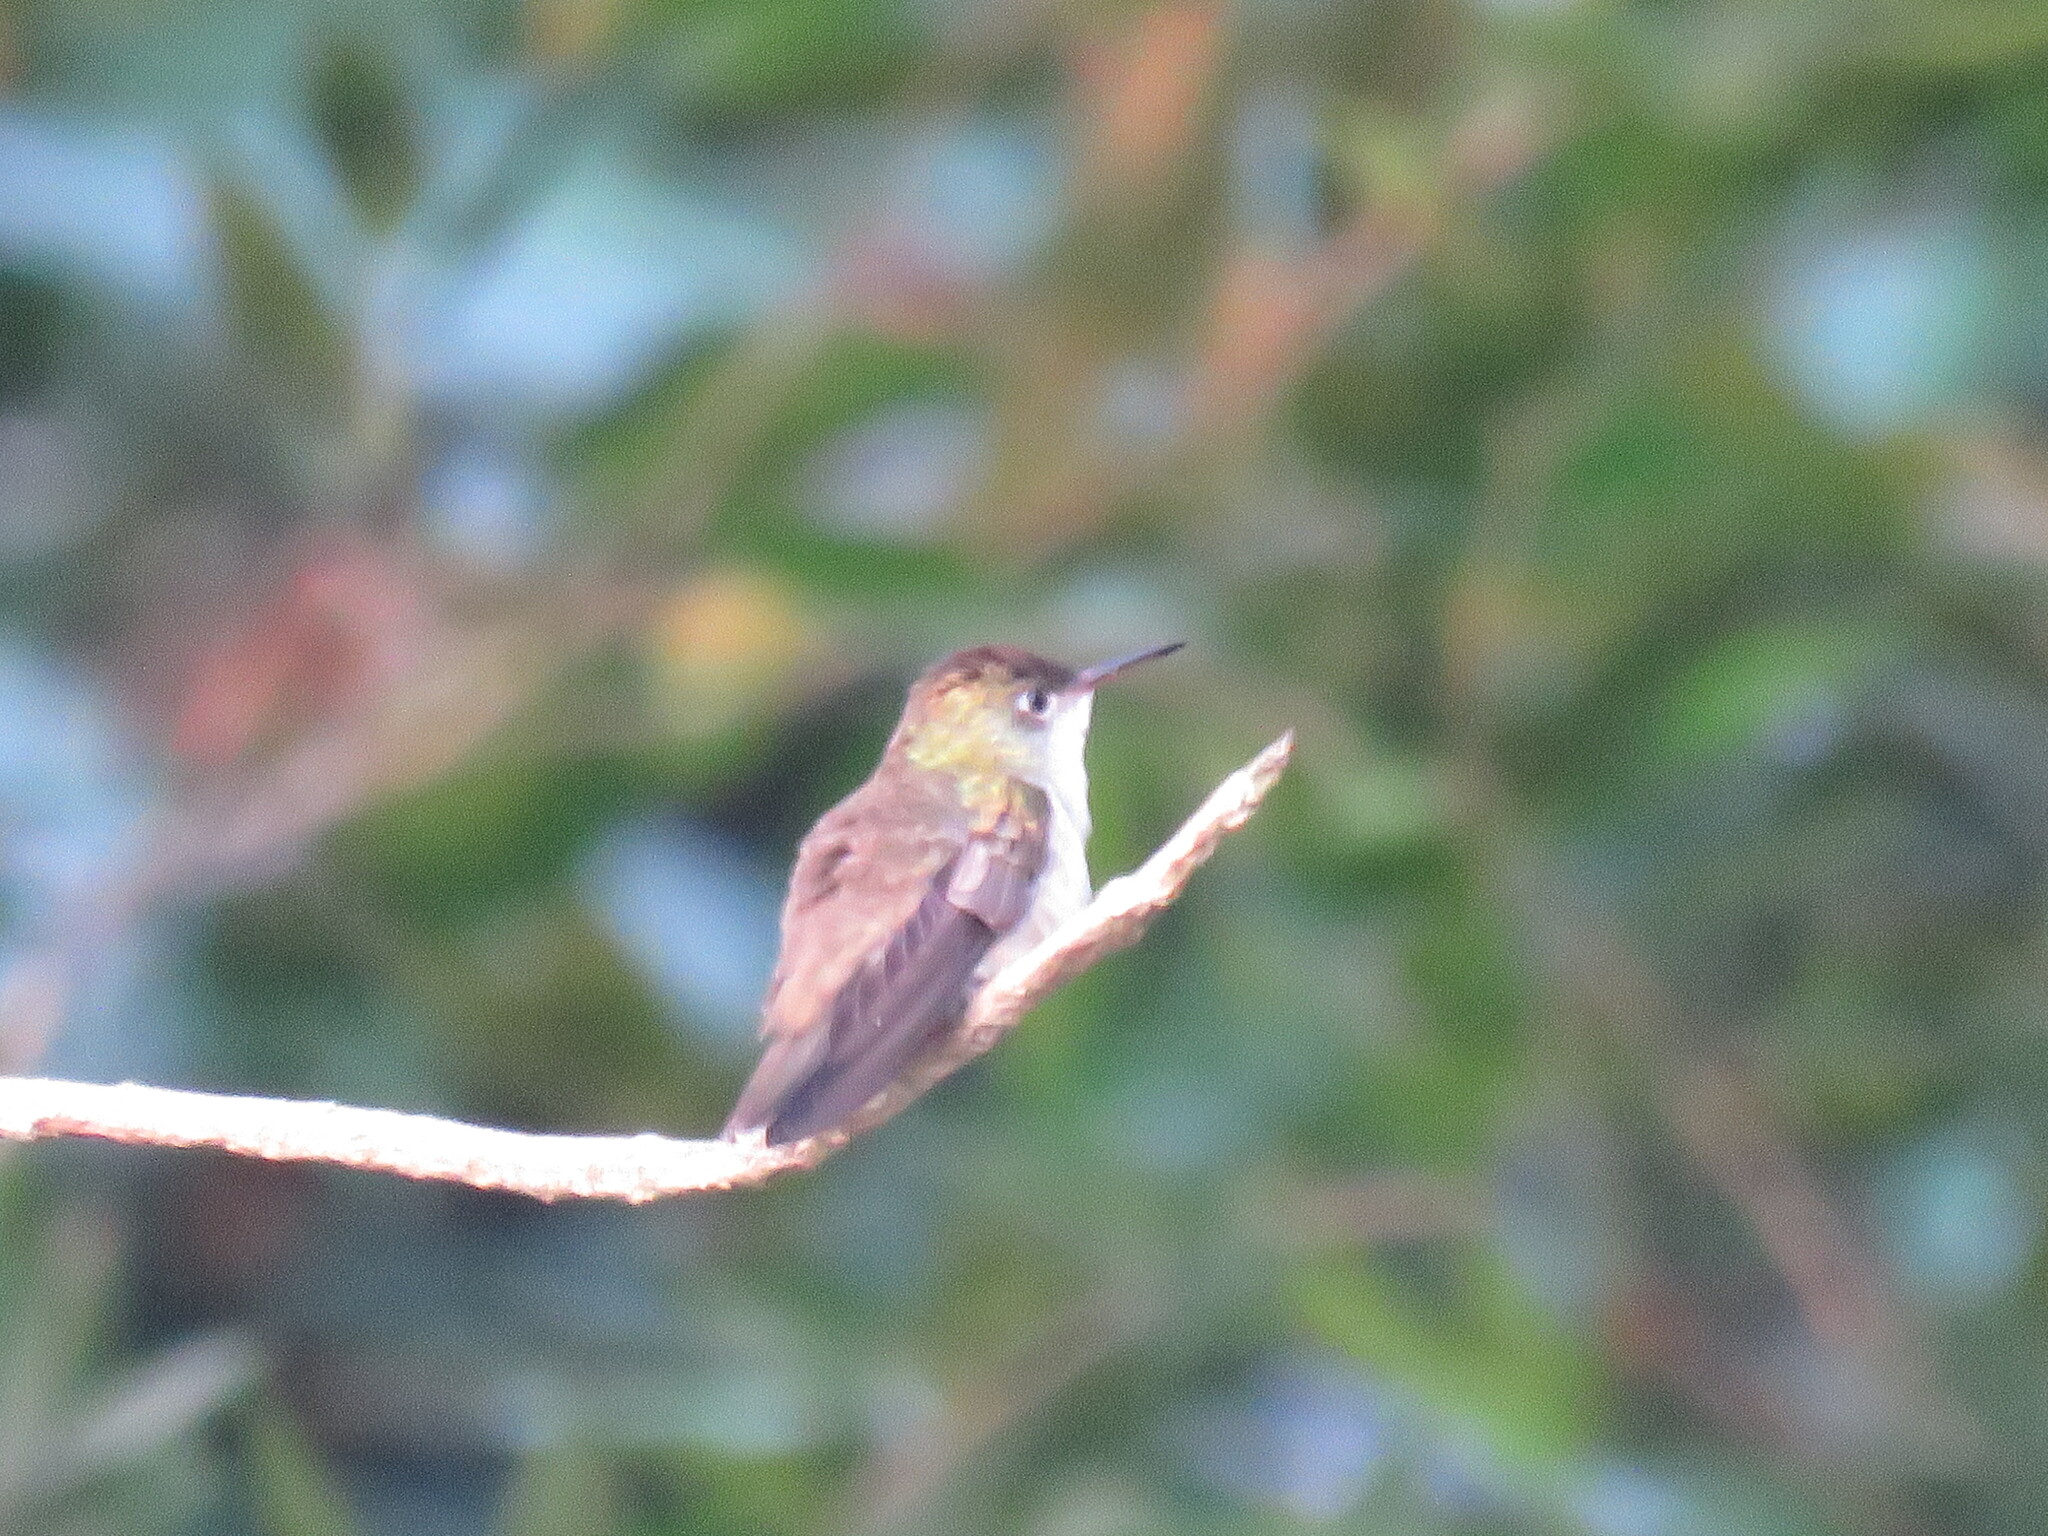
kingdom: Animalia
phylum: Chordata
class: Aves
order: Apodiformes
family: Trochilidae
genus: Chlorestes
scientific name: Chlorestes candida
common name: White-bellied emerald
